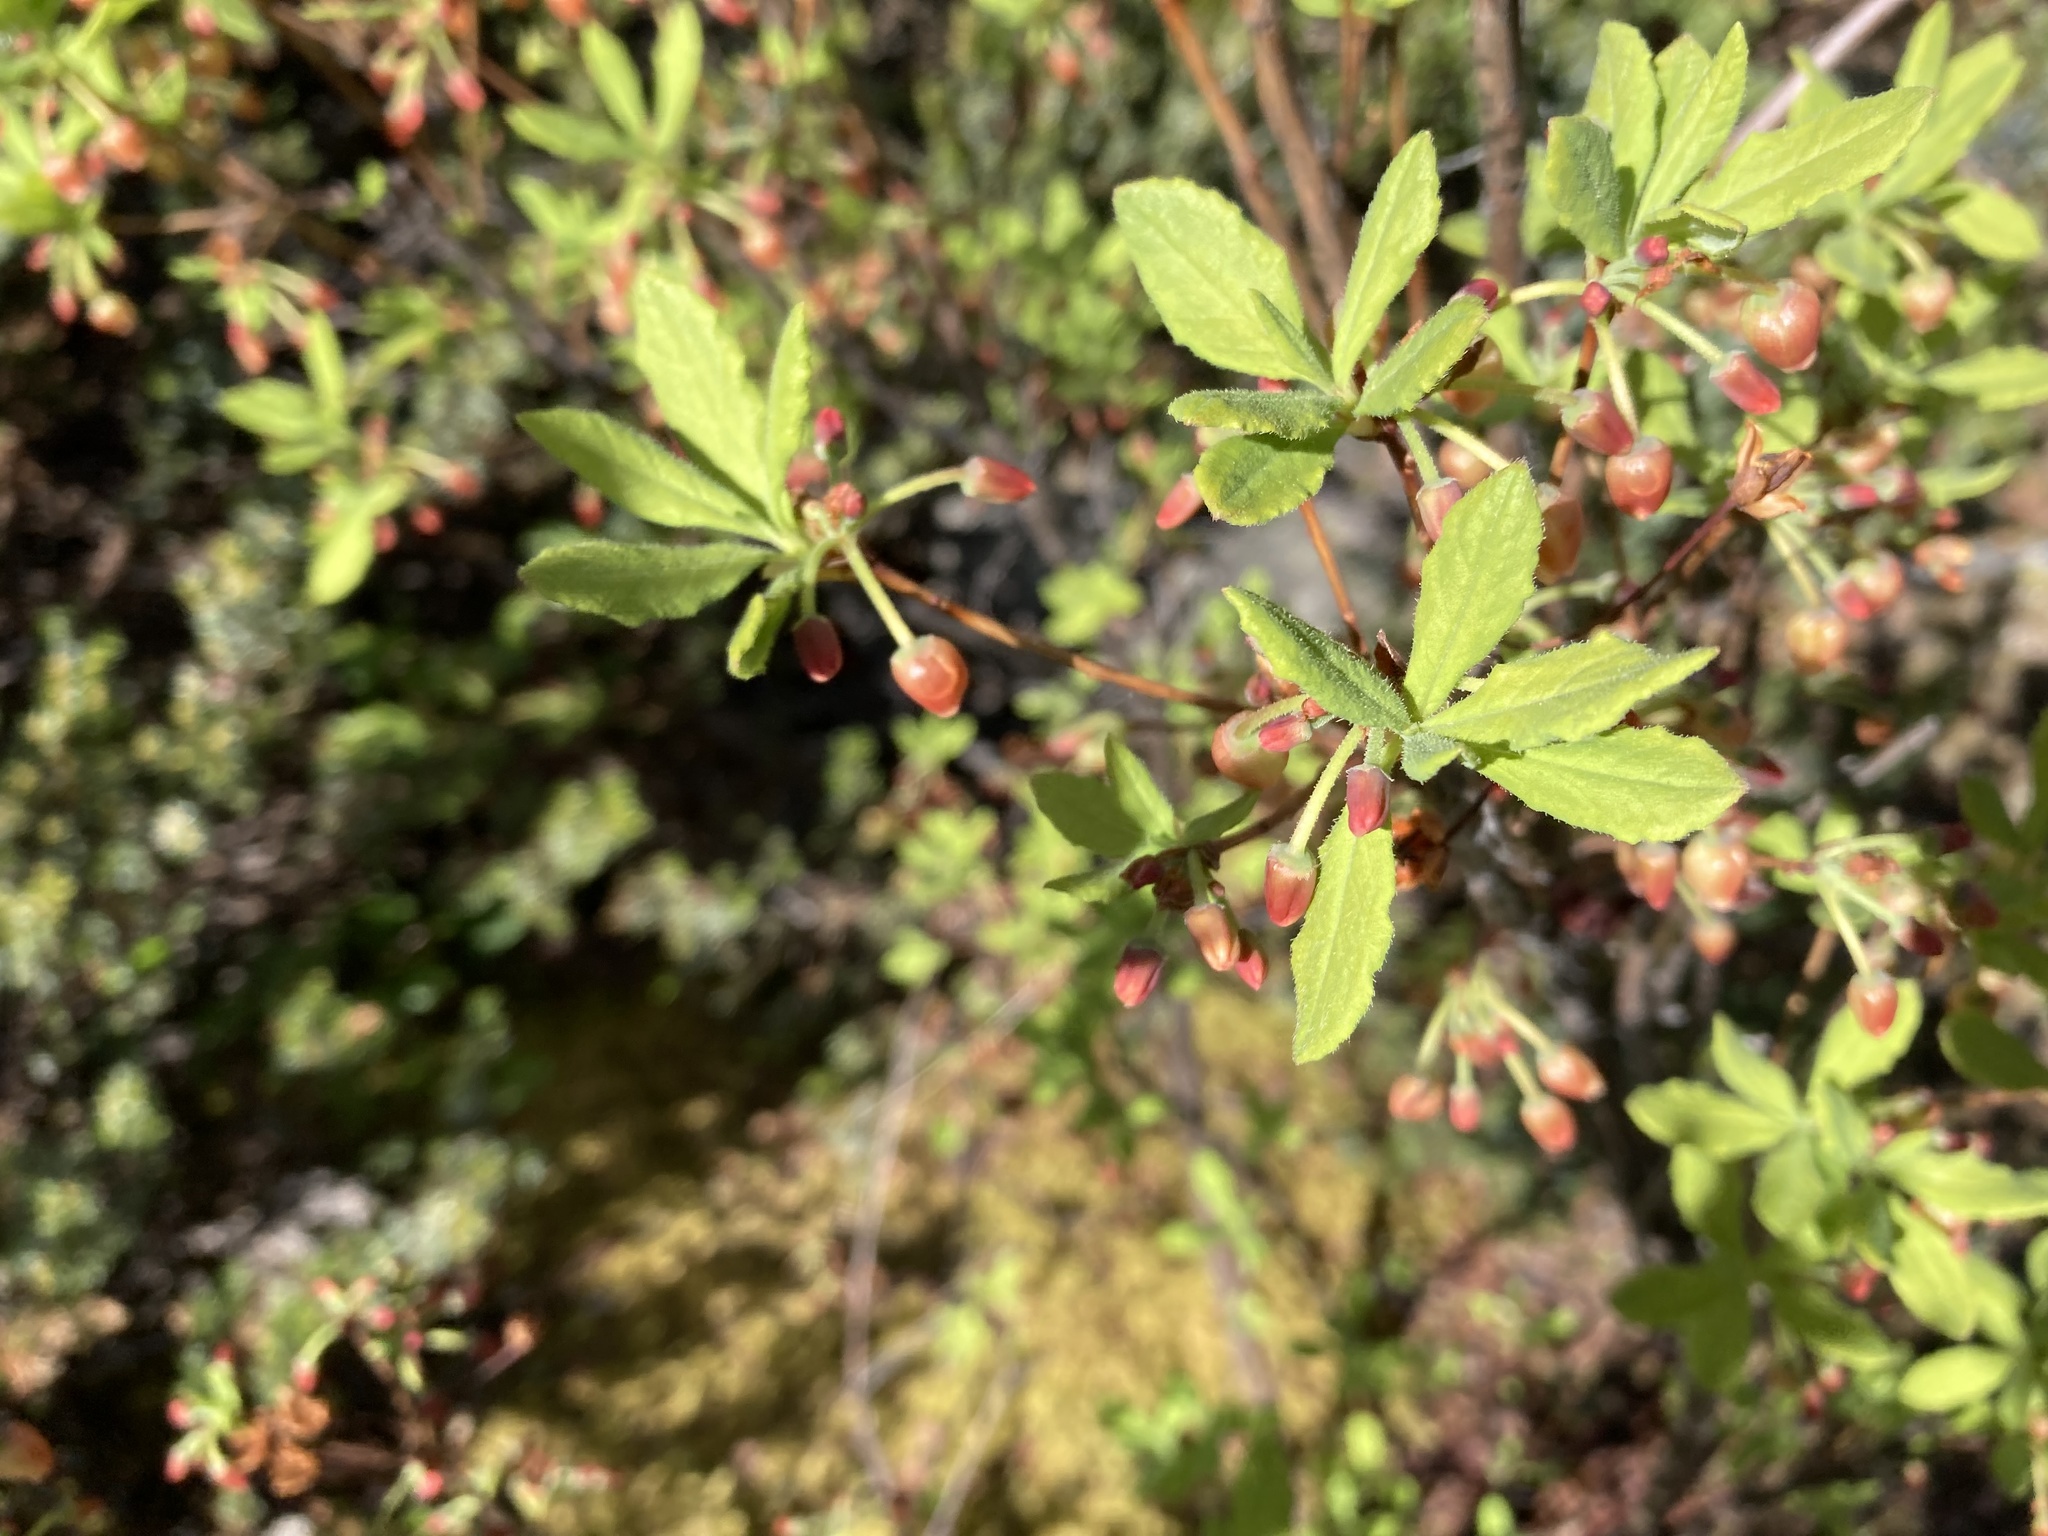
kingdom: Plantae
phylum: Tracheophyta
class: Magnoliopsida
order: Ericales
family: Ericaceae
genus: Rhododendron
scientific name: Rhododendron menziesii
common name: Pacific menziesia
